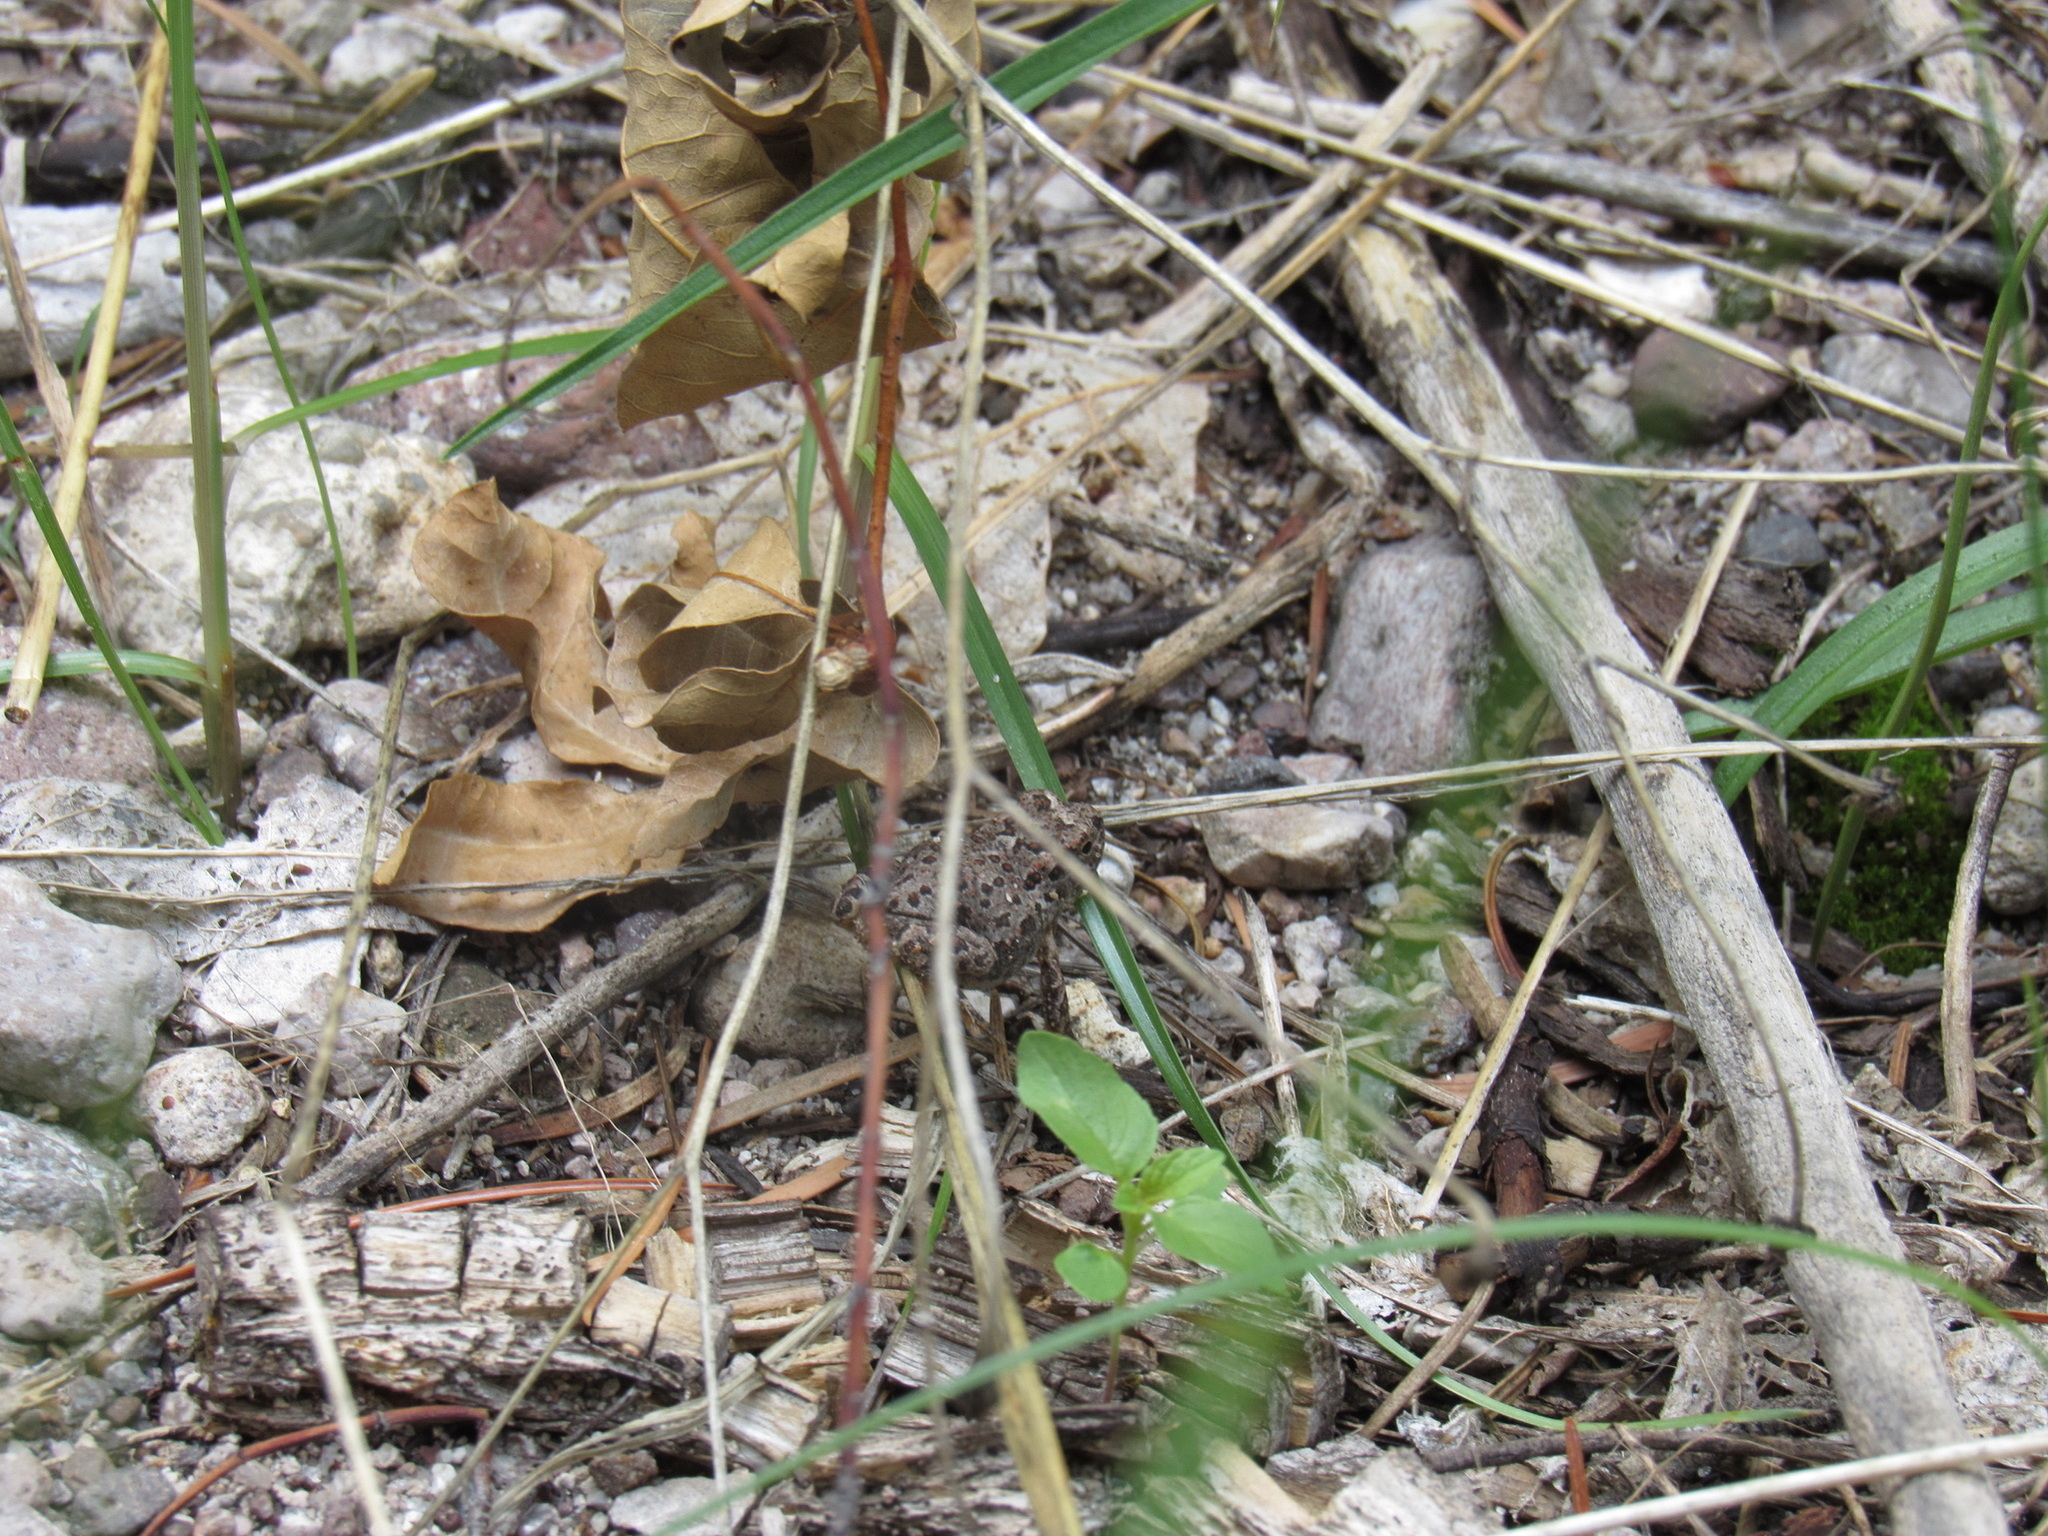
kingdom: Animalia
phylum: Chordata
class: Amphibia
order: Anura
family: Bufonidae
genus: Anaxyrus
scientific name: Anaxyrus microscaphus
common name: Arizona toad
